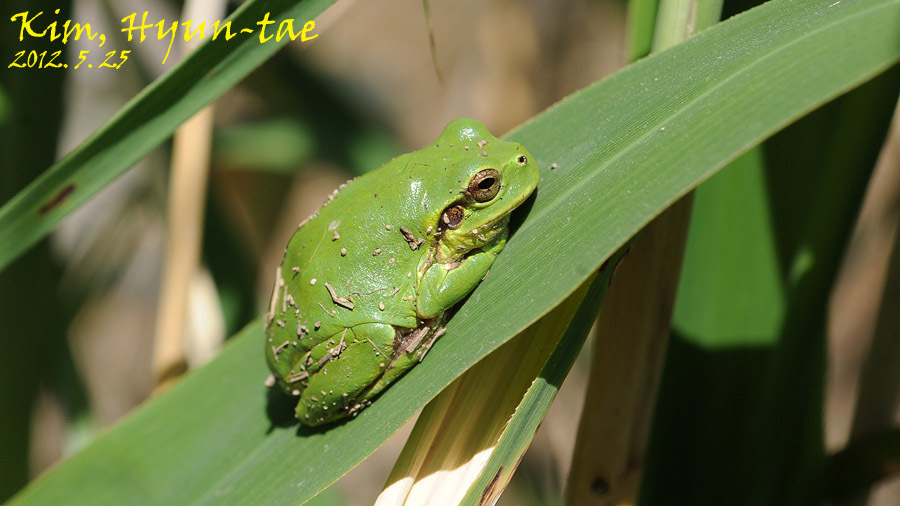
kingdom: Animalia
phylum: Chordata
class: Amphibia
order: Anura
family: Hylidae
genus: Dryophytes
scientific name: Dryophytes japonicus
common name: Japanese treefrog
